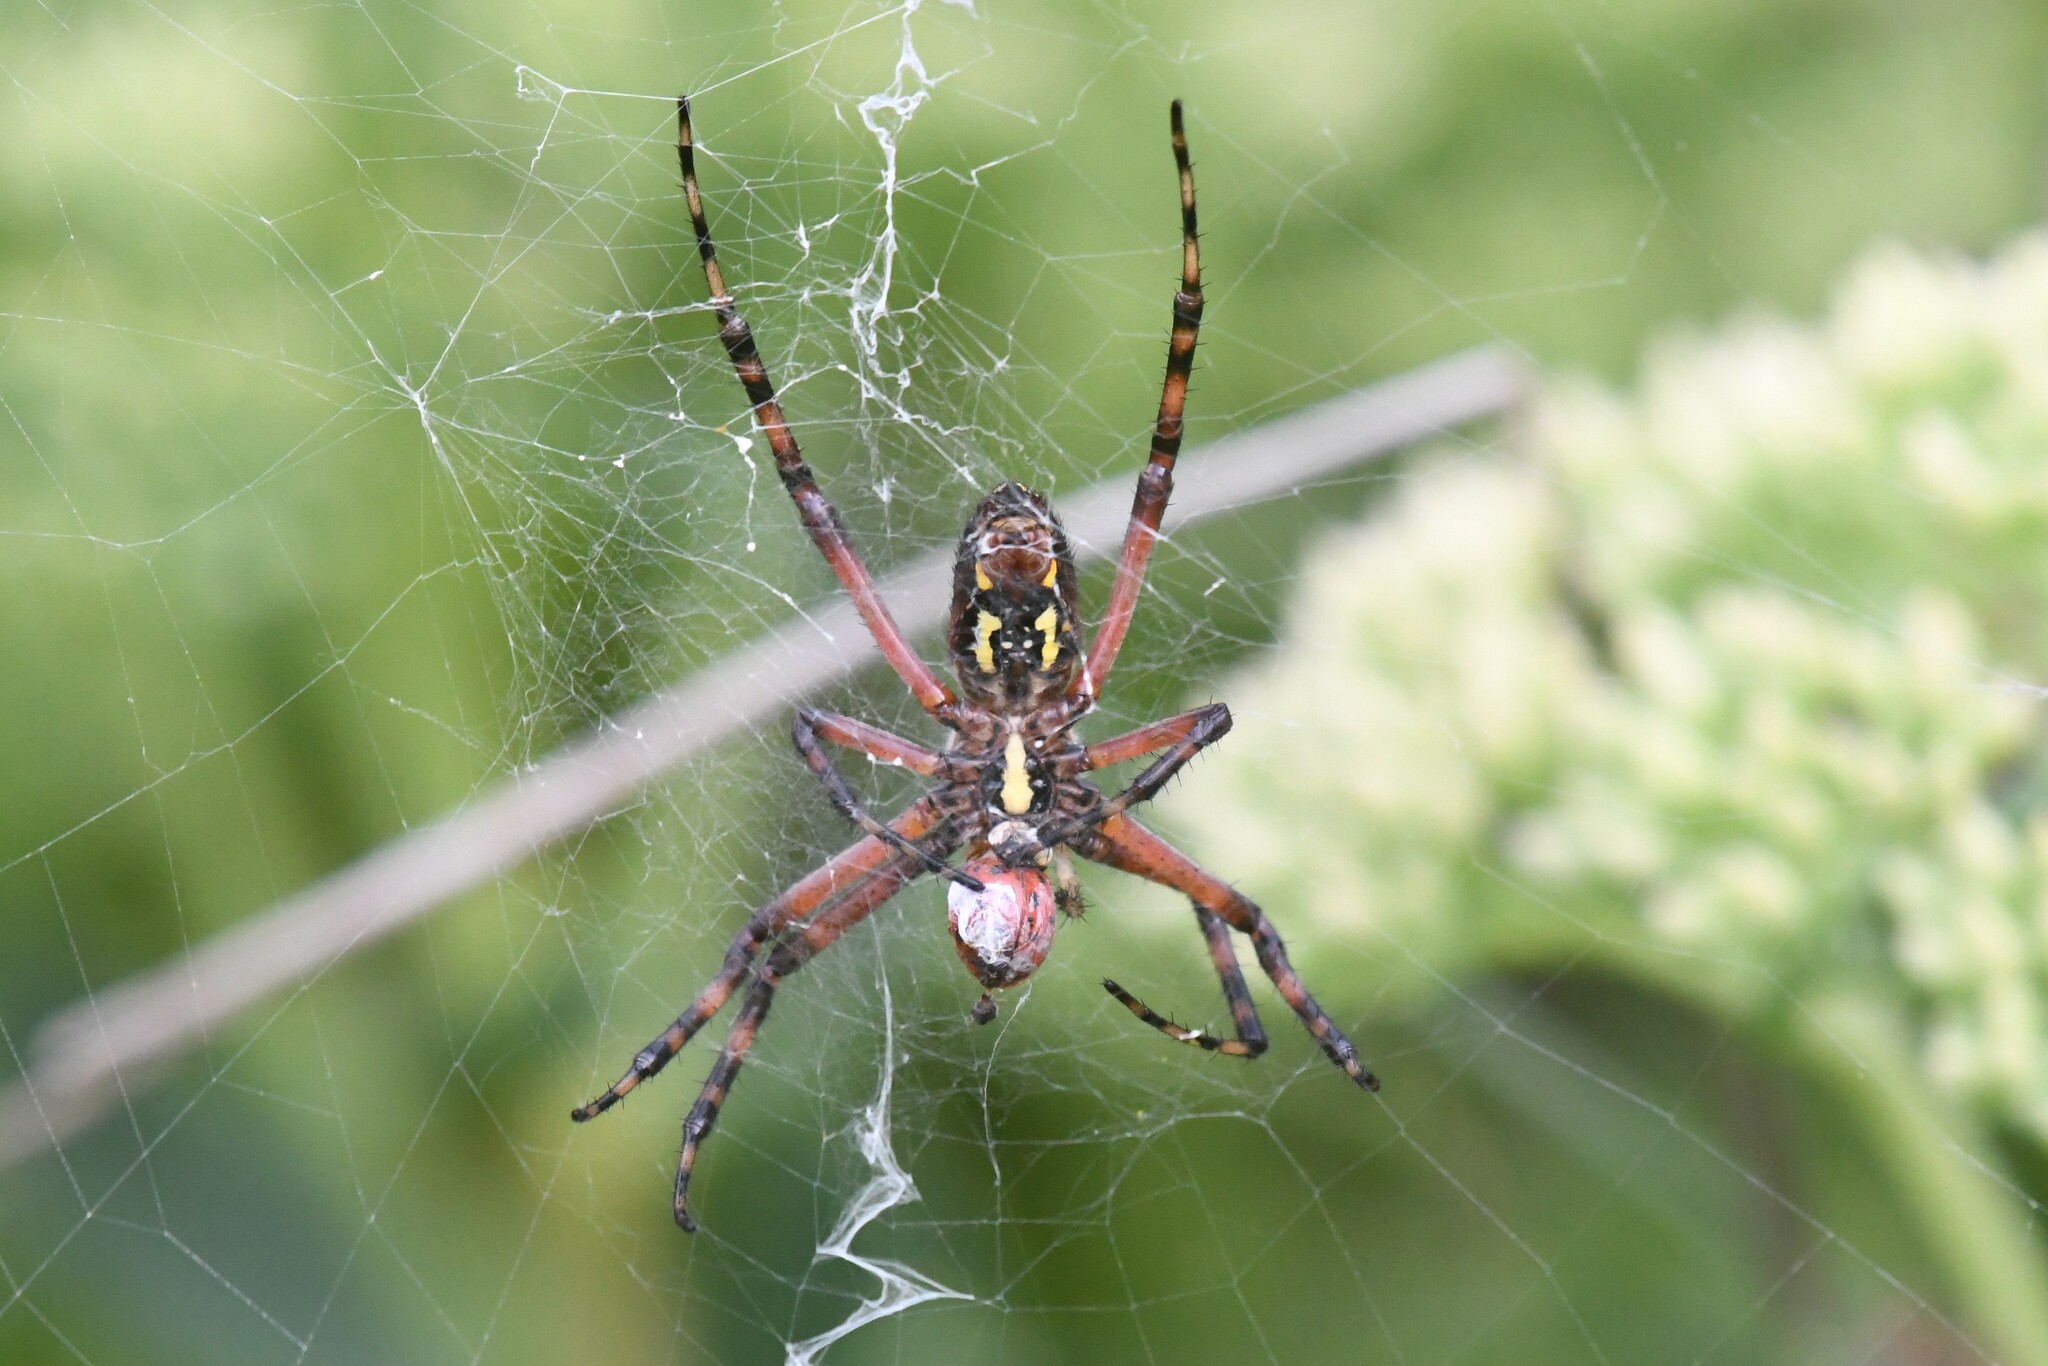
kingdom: Animalia
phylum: Arthropoda
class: Arachnida
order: Araneae
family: Araneidae
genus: Argiope
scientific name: Argiope aurantia
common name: Orb weavers
